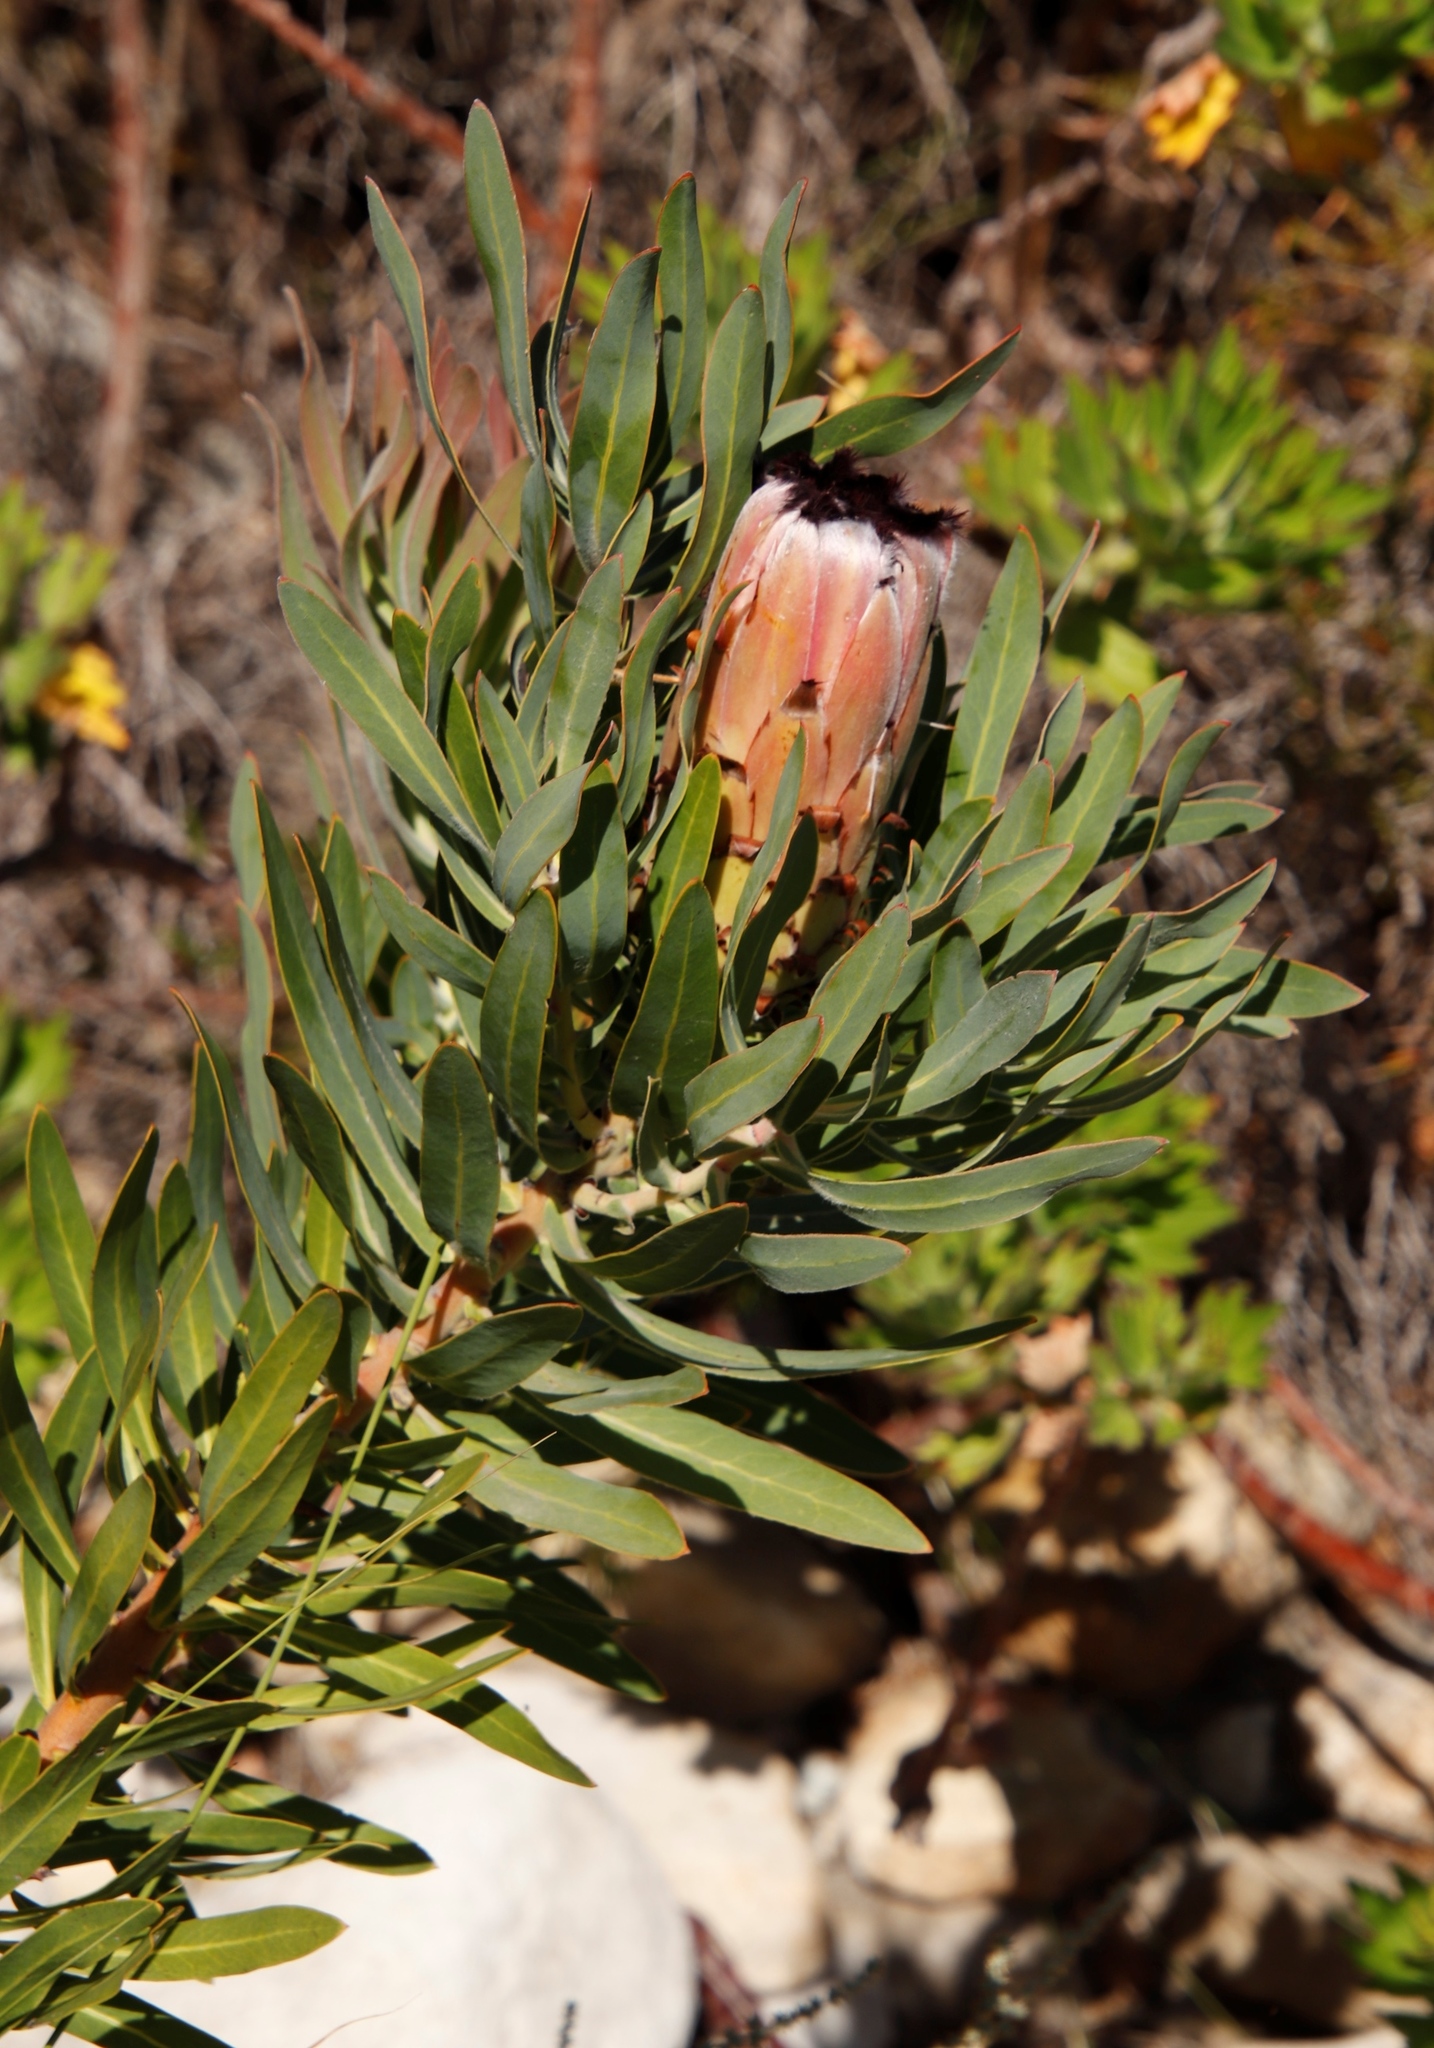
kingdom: Plantae
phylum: Tracheophyta
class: Magnoliopsida
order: Proteales
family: Proteaceae
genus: Protea
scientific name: Protea laurifolia
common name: Grey-leaf sugarbsh
